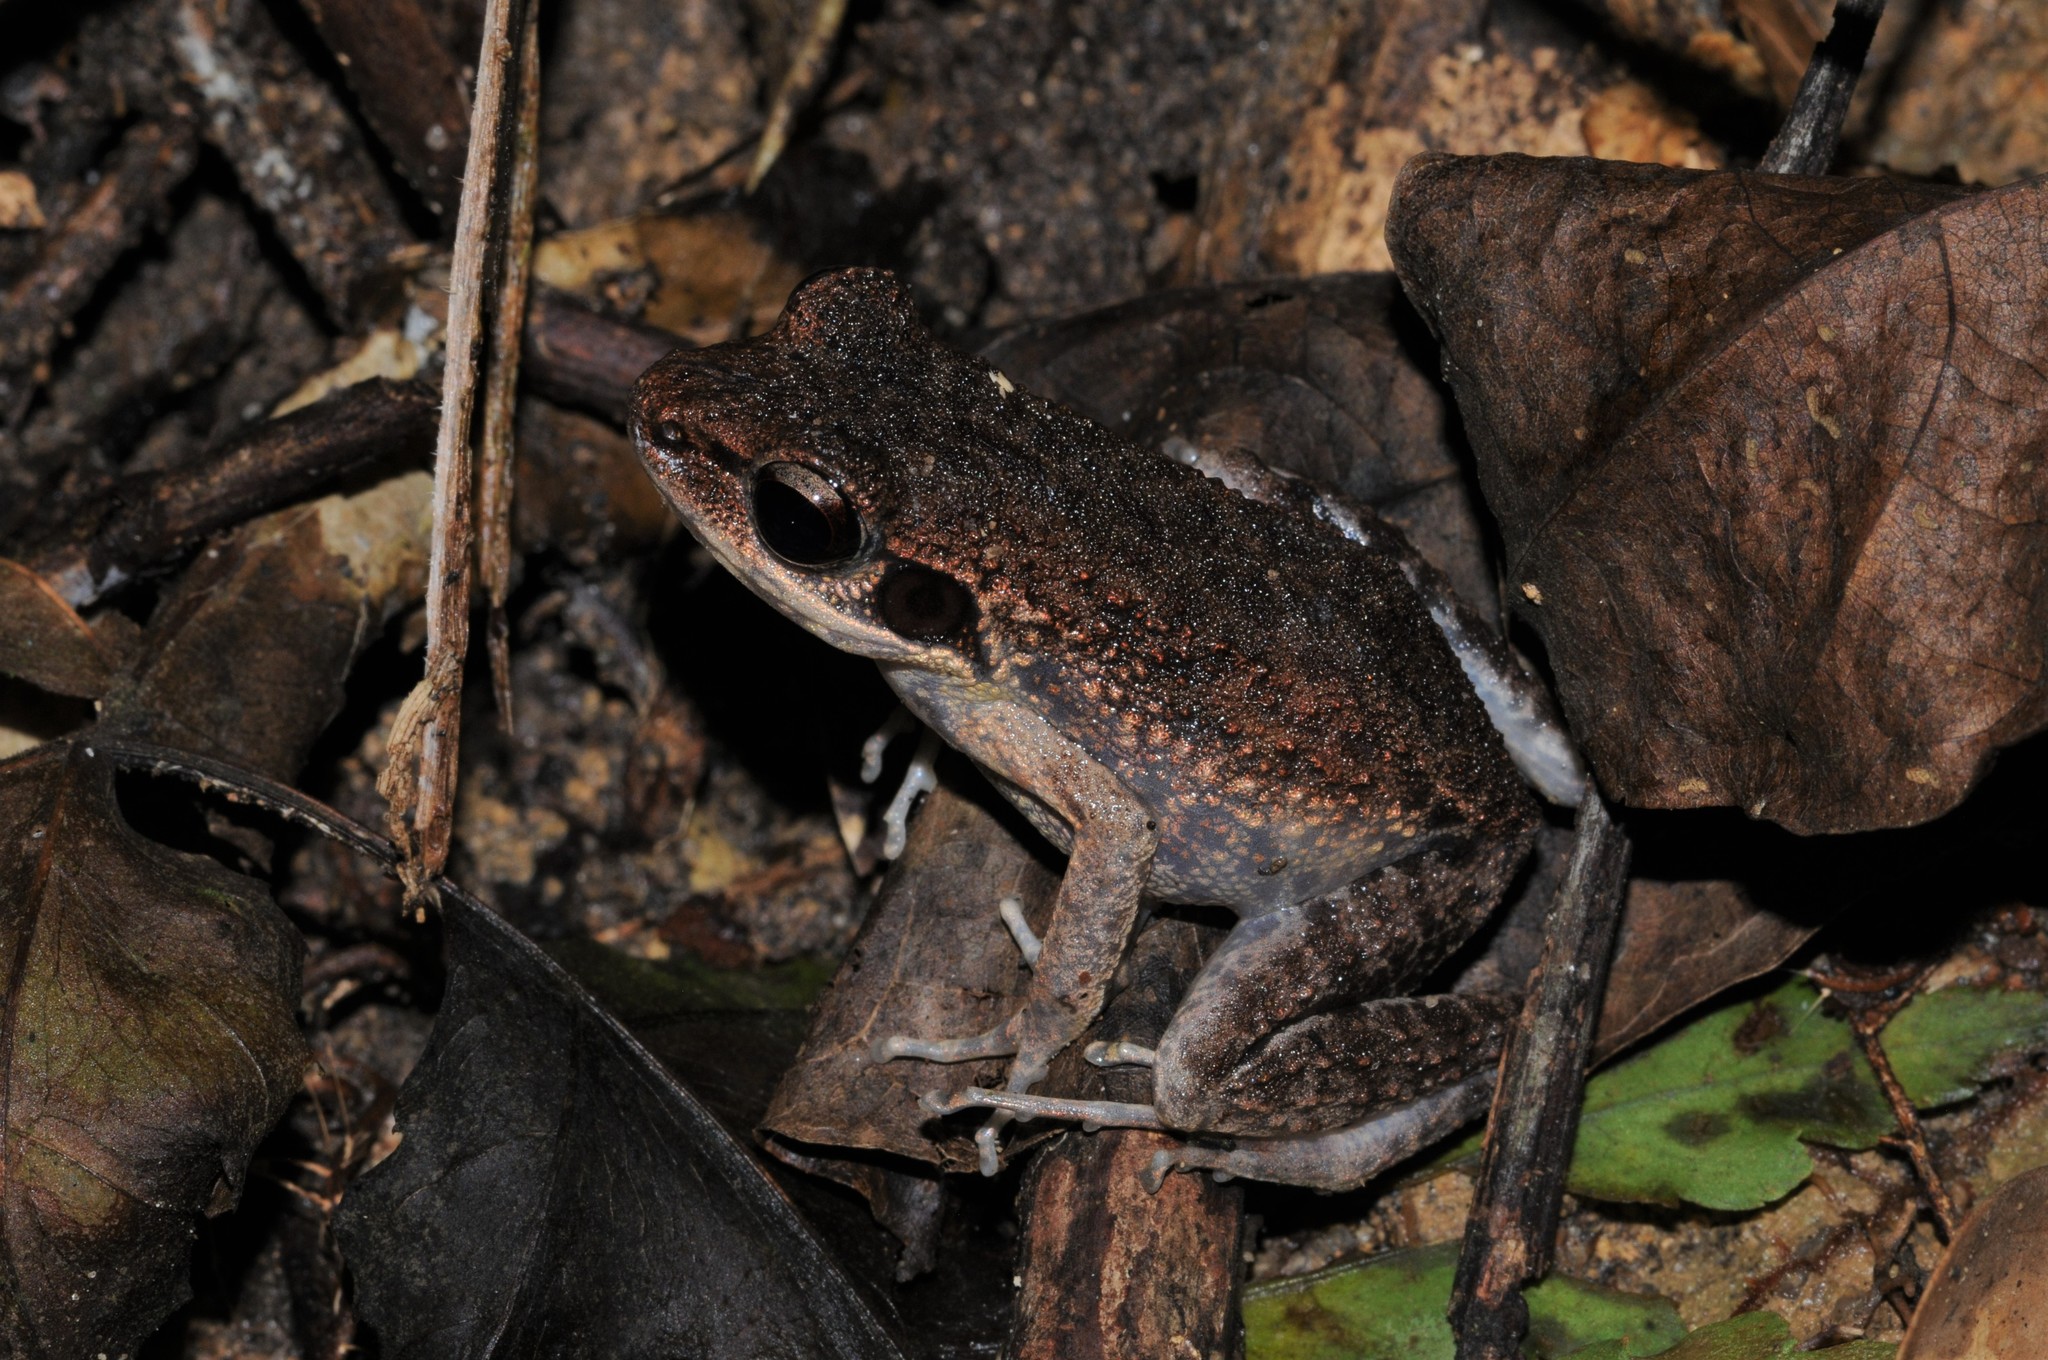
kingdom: Animalia
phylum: Chordata
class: Amphibia
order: Anura
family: Ranidae
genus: Pulchrana
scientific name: Pulchrana laterimaculata
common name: Side-spotted swamp frog
